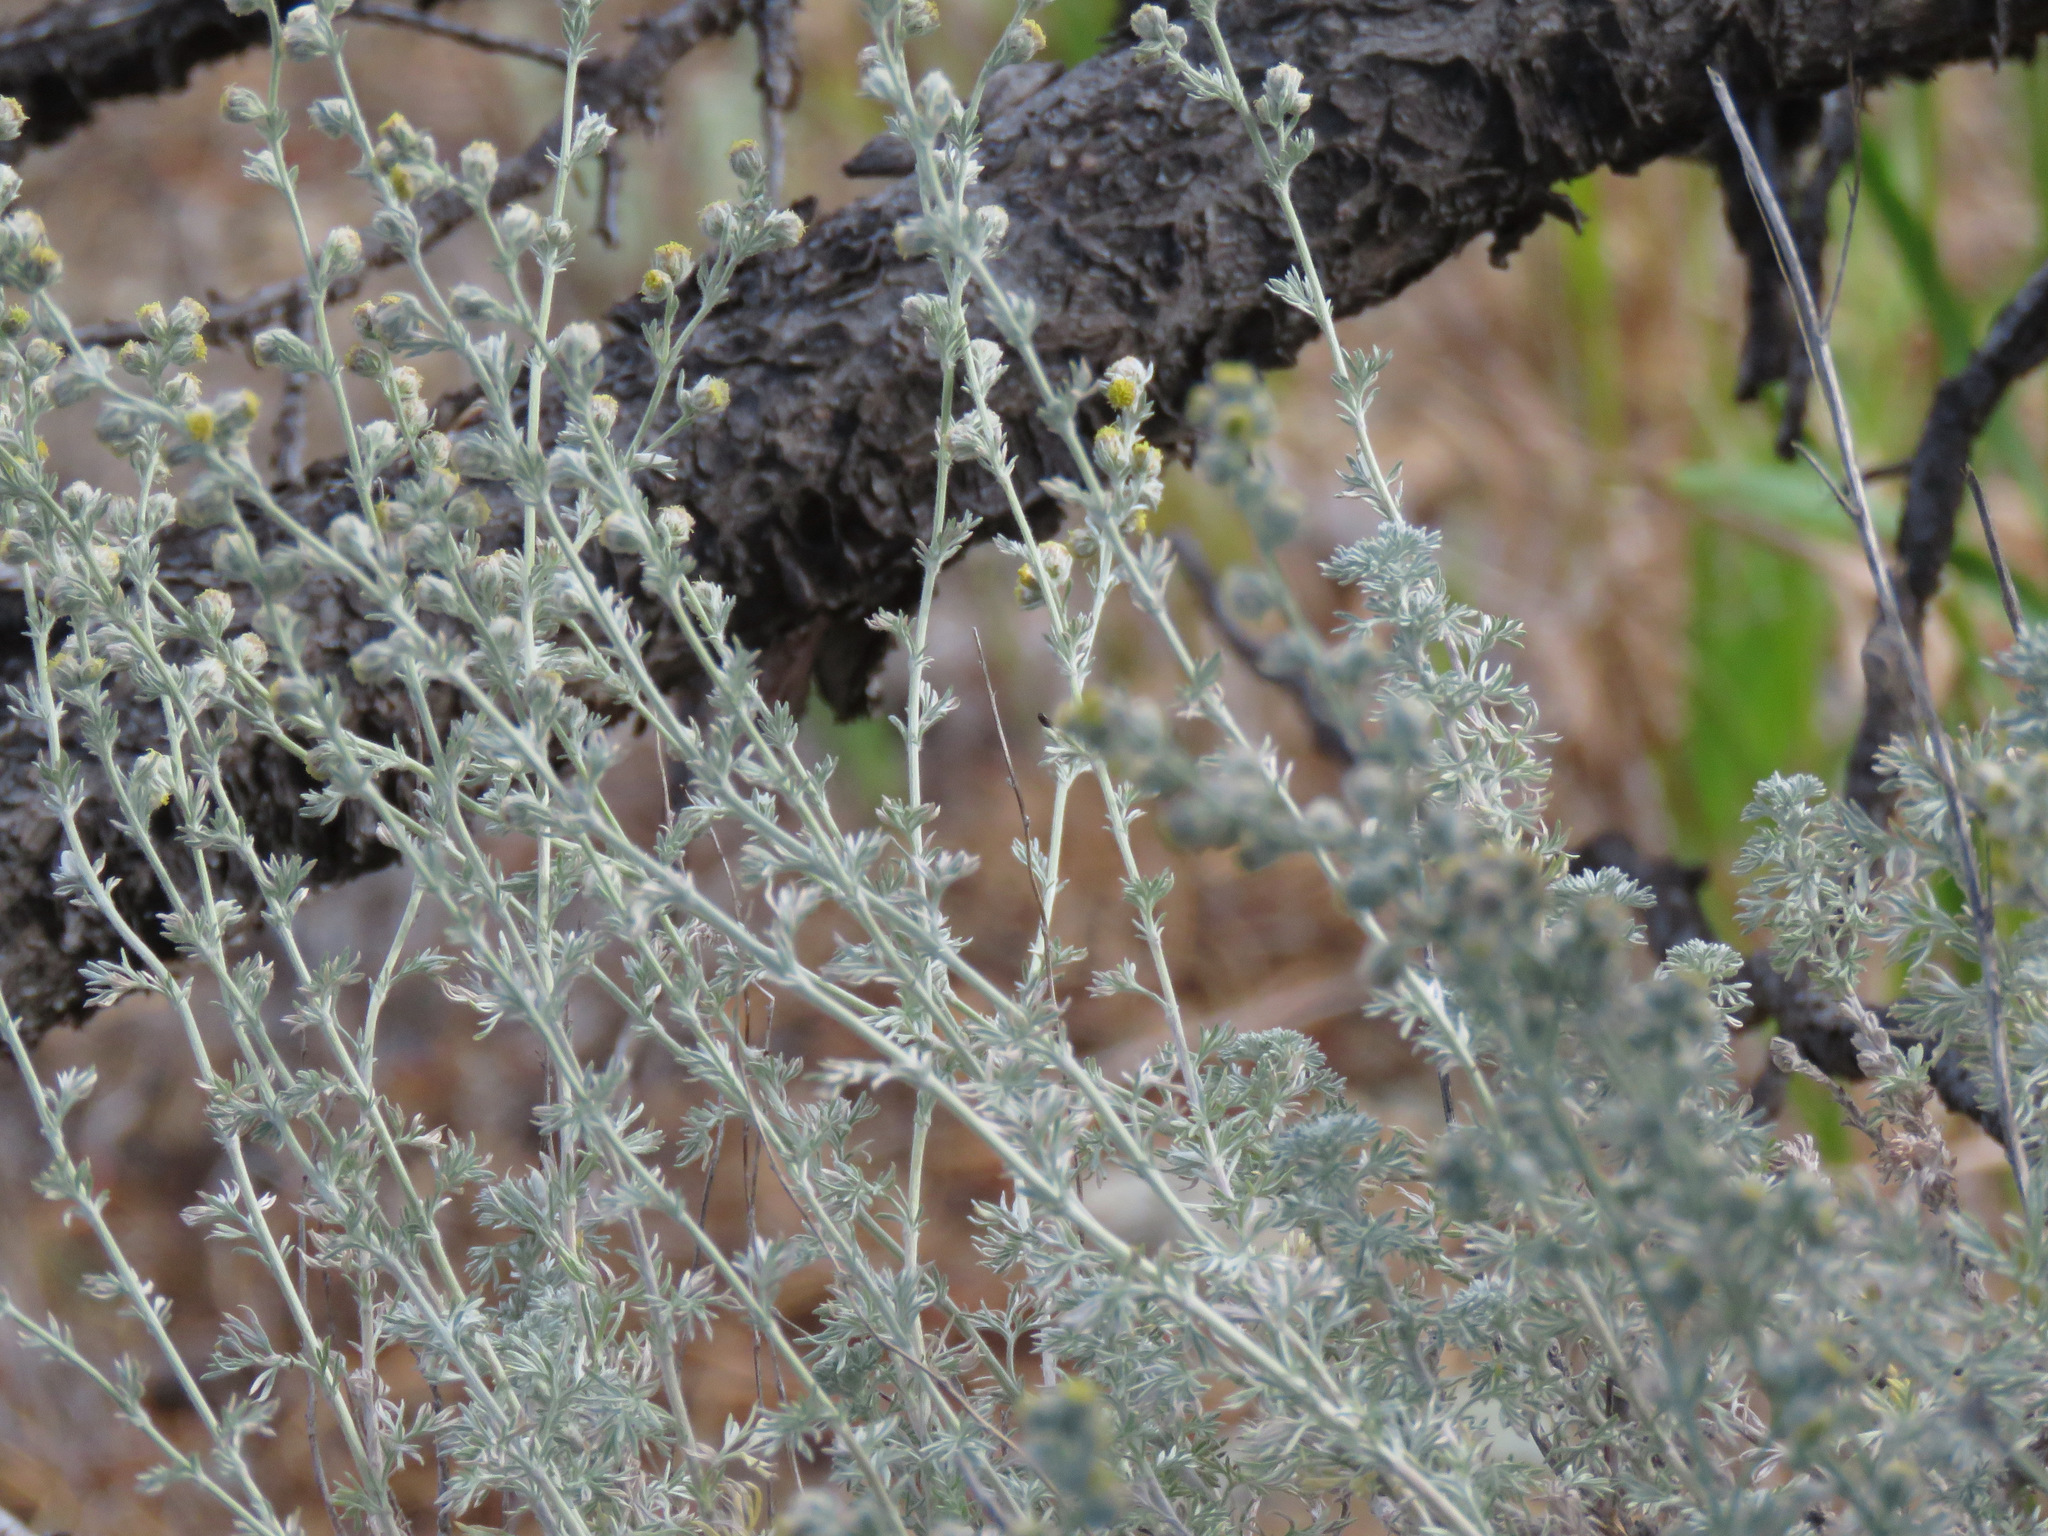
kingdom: Plantae
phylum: Tracheophyta
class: Magnoliopsida
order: Asterales
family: Asteraceae
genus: Artemisia
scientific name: Artemisia frigida
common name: Prairie sagewort
